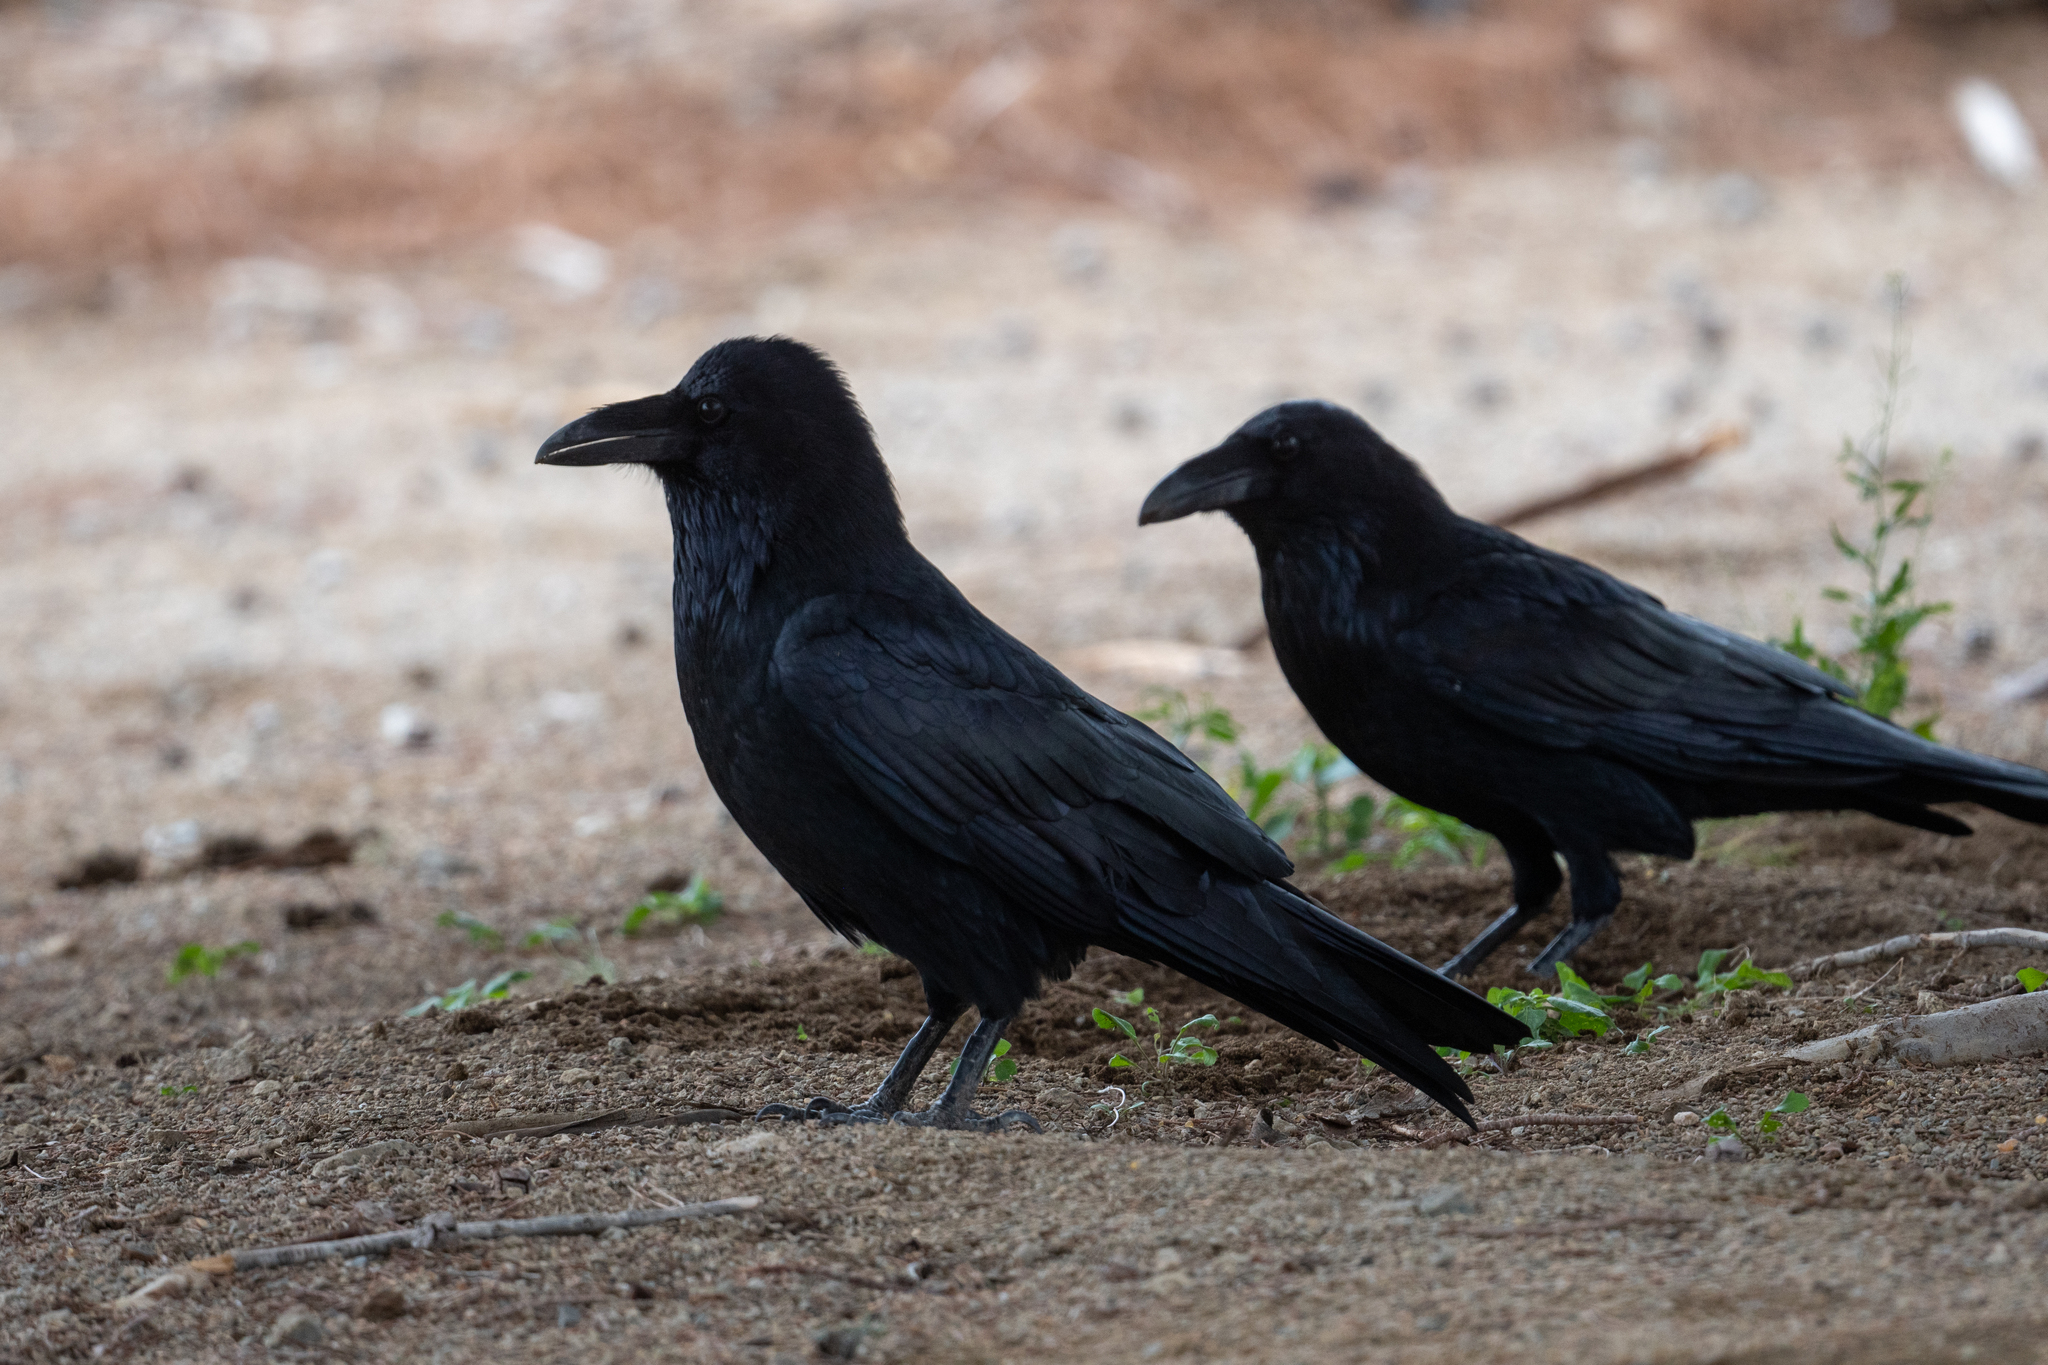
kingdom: Animalia
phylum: Chordata
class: Aves
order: Passeriformes
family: Corvidae
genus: Corvus
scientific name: Corvus corax
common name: Common raven
